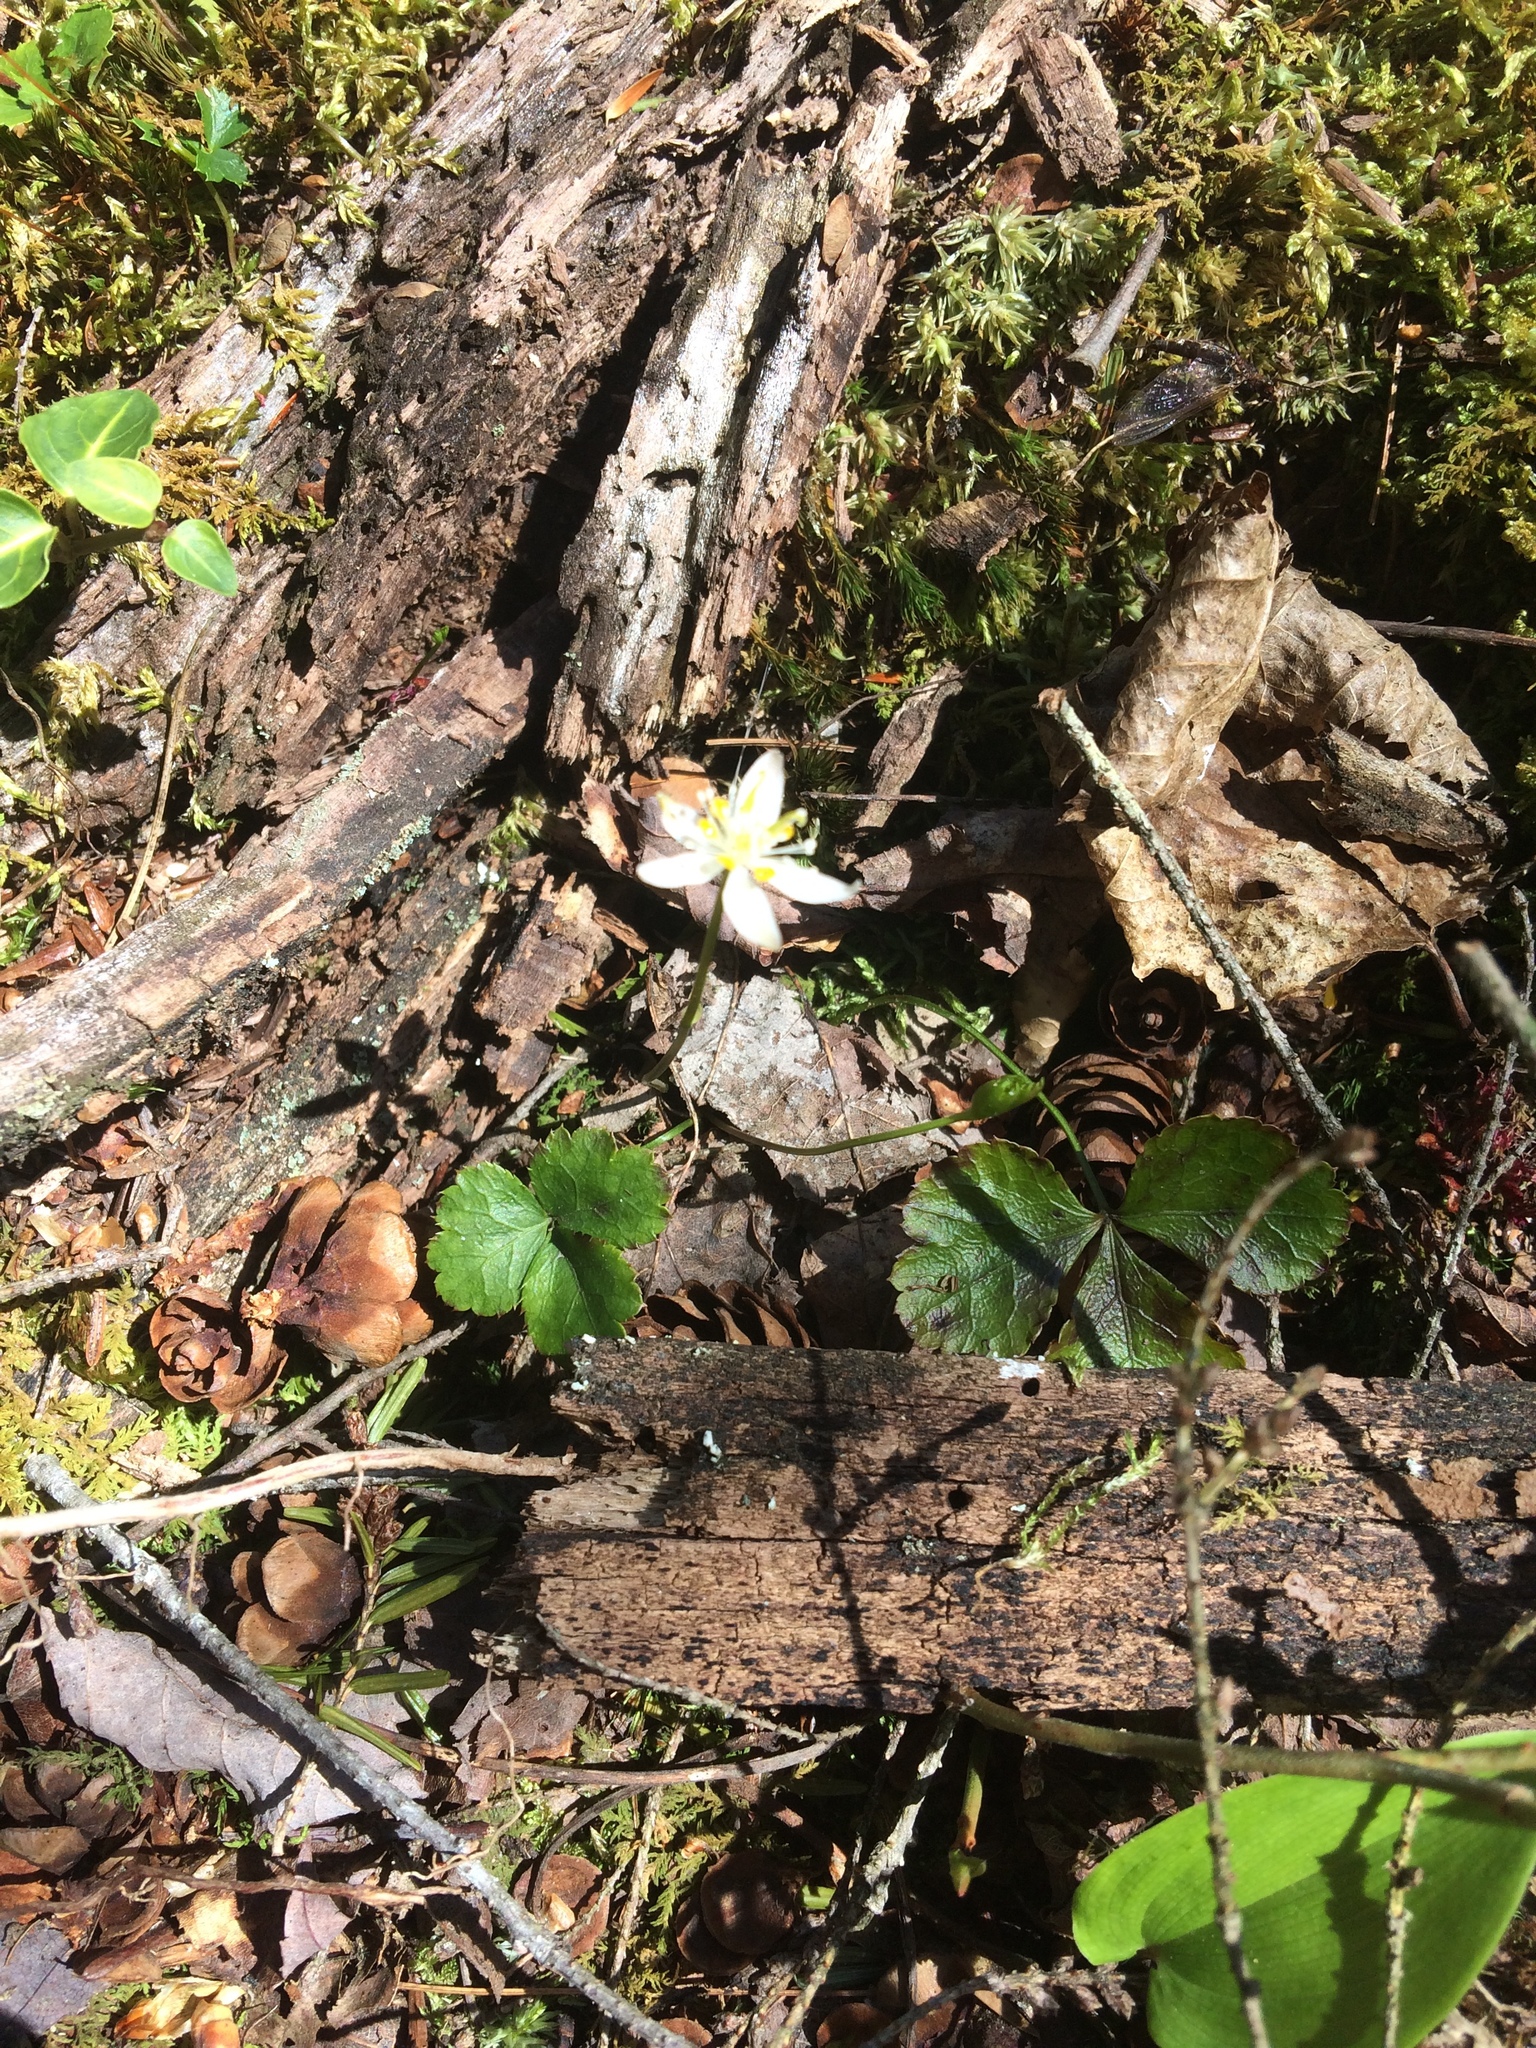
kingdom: Plantae
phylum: Tracheophyta
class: Magnoliopsida
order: Ranunculales
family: Ranunculaceae
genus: Coptis
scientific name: Coptis trifolia
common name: Canker-root
